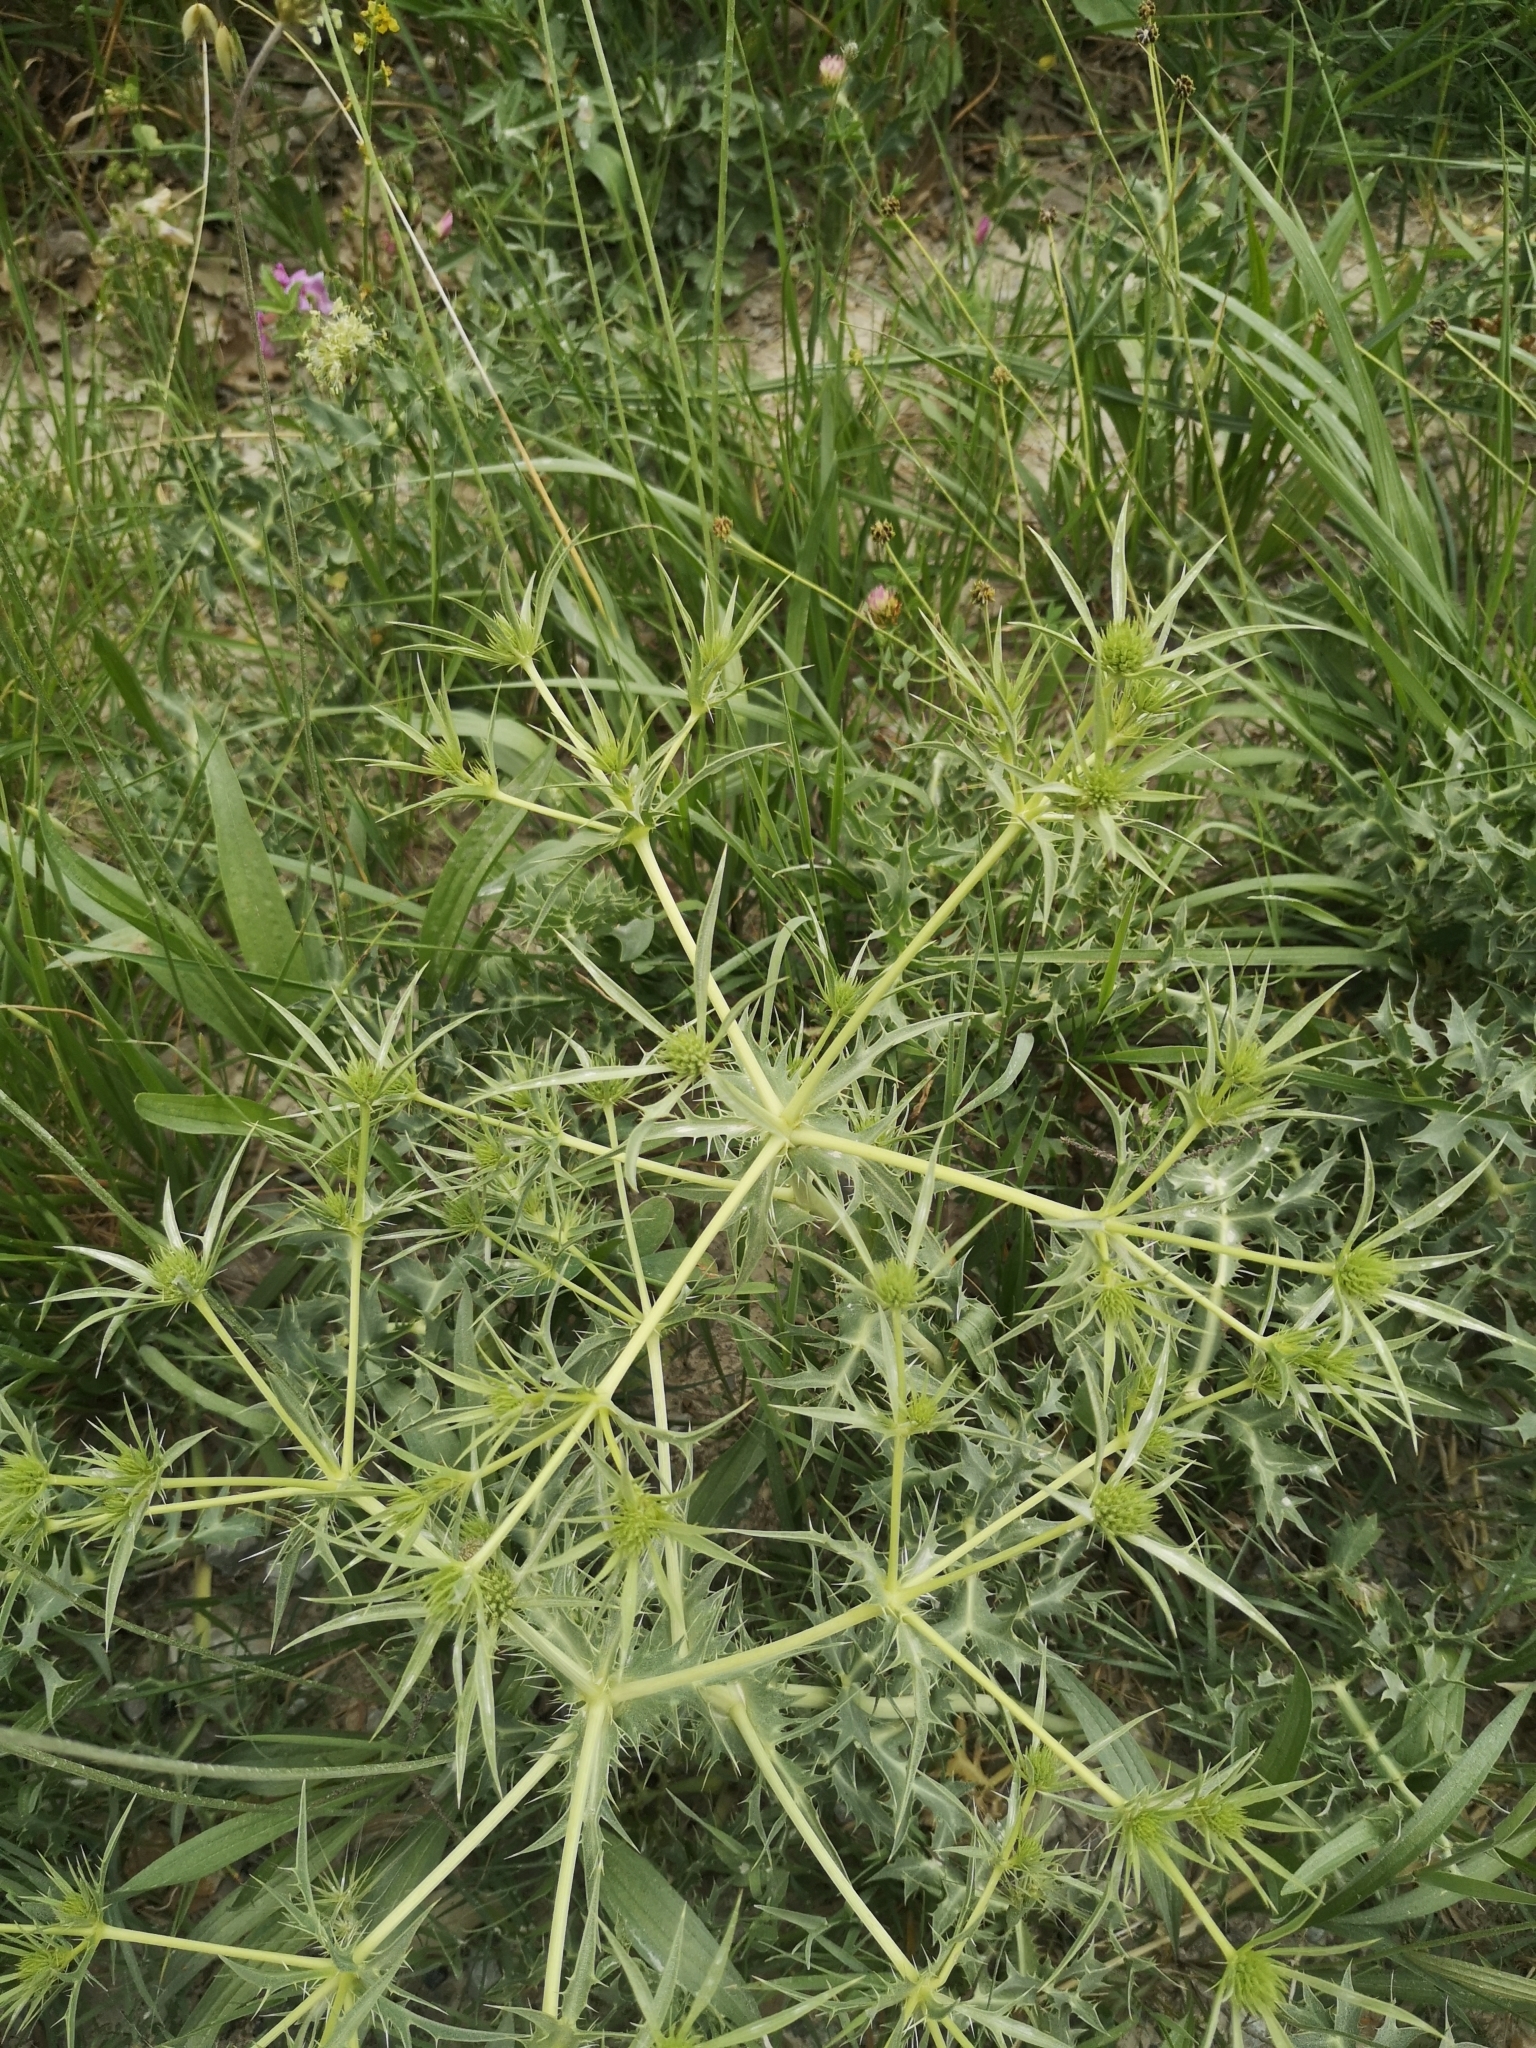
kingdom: Plantae
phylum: Tracheophyta
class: Magnoliopsida
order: Apiales
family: Apiaceae
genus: Eryngium
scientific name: Eryngium campestre
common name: Field eryngo
